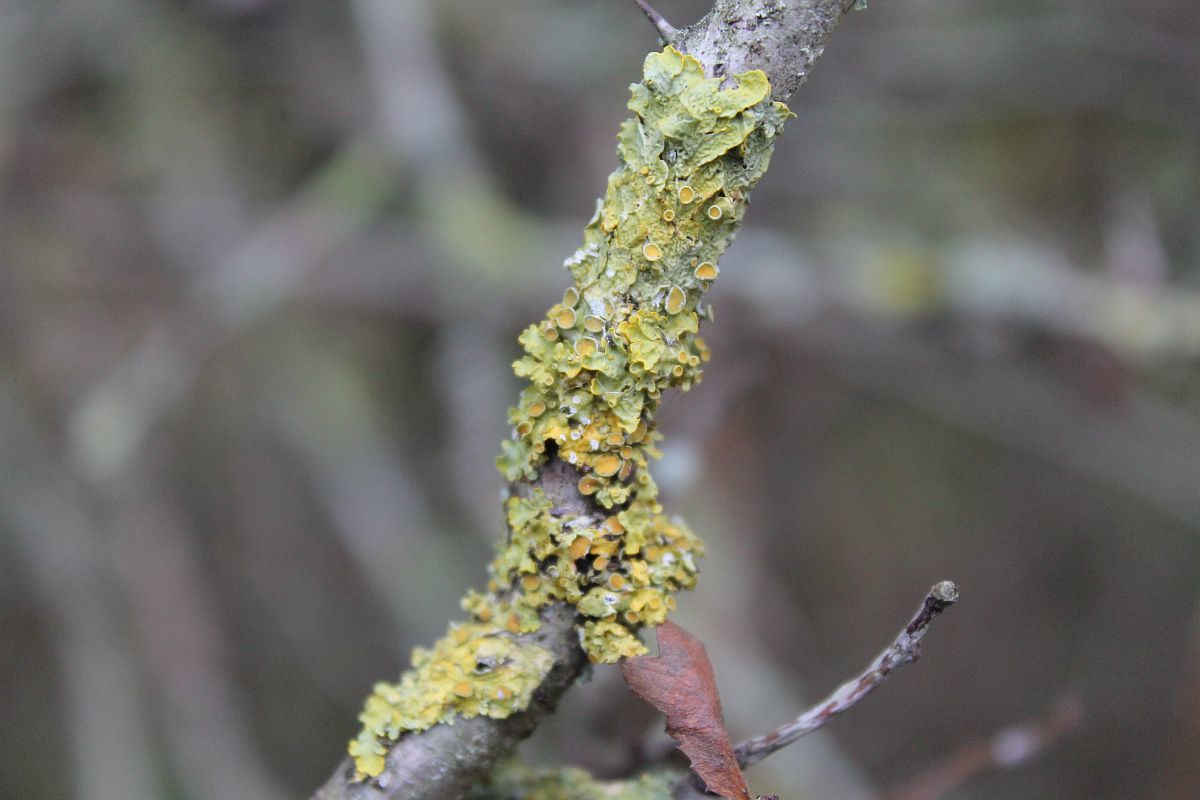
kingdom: Fungi
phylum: Ascomycota
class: Lecanoromycetes
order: Teloschistales
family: Teloschistaceae
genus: Xanthoria
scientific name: Xanthoria parietina
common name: Common orange lichen
